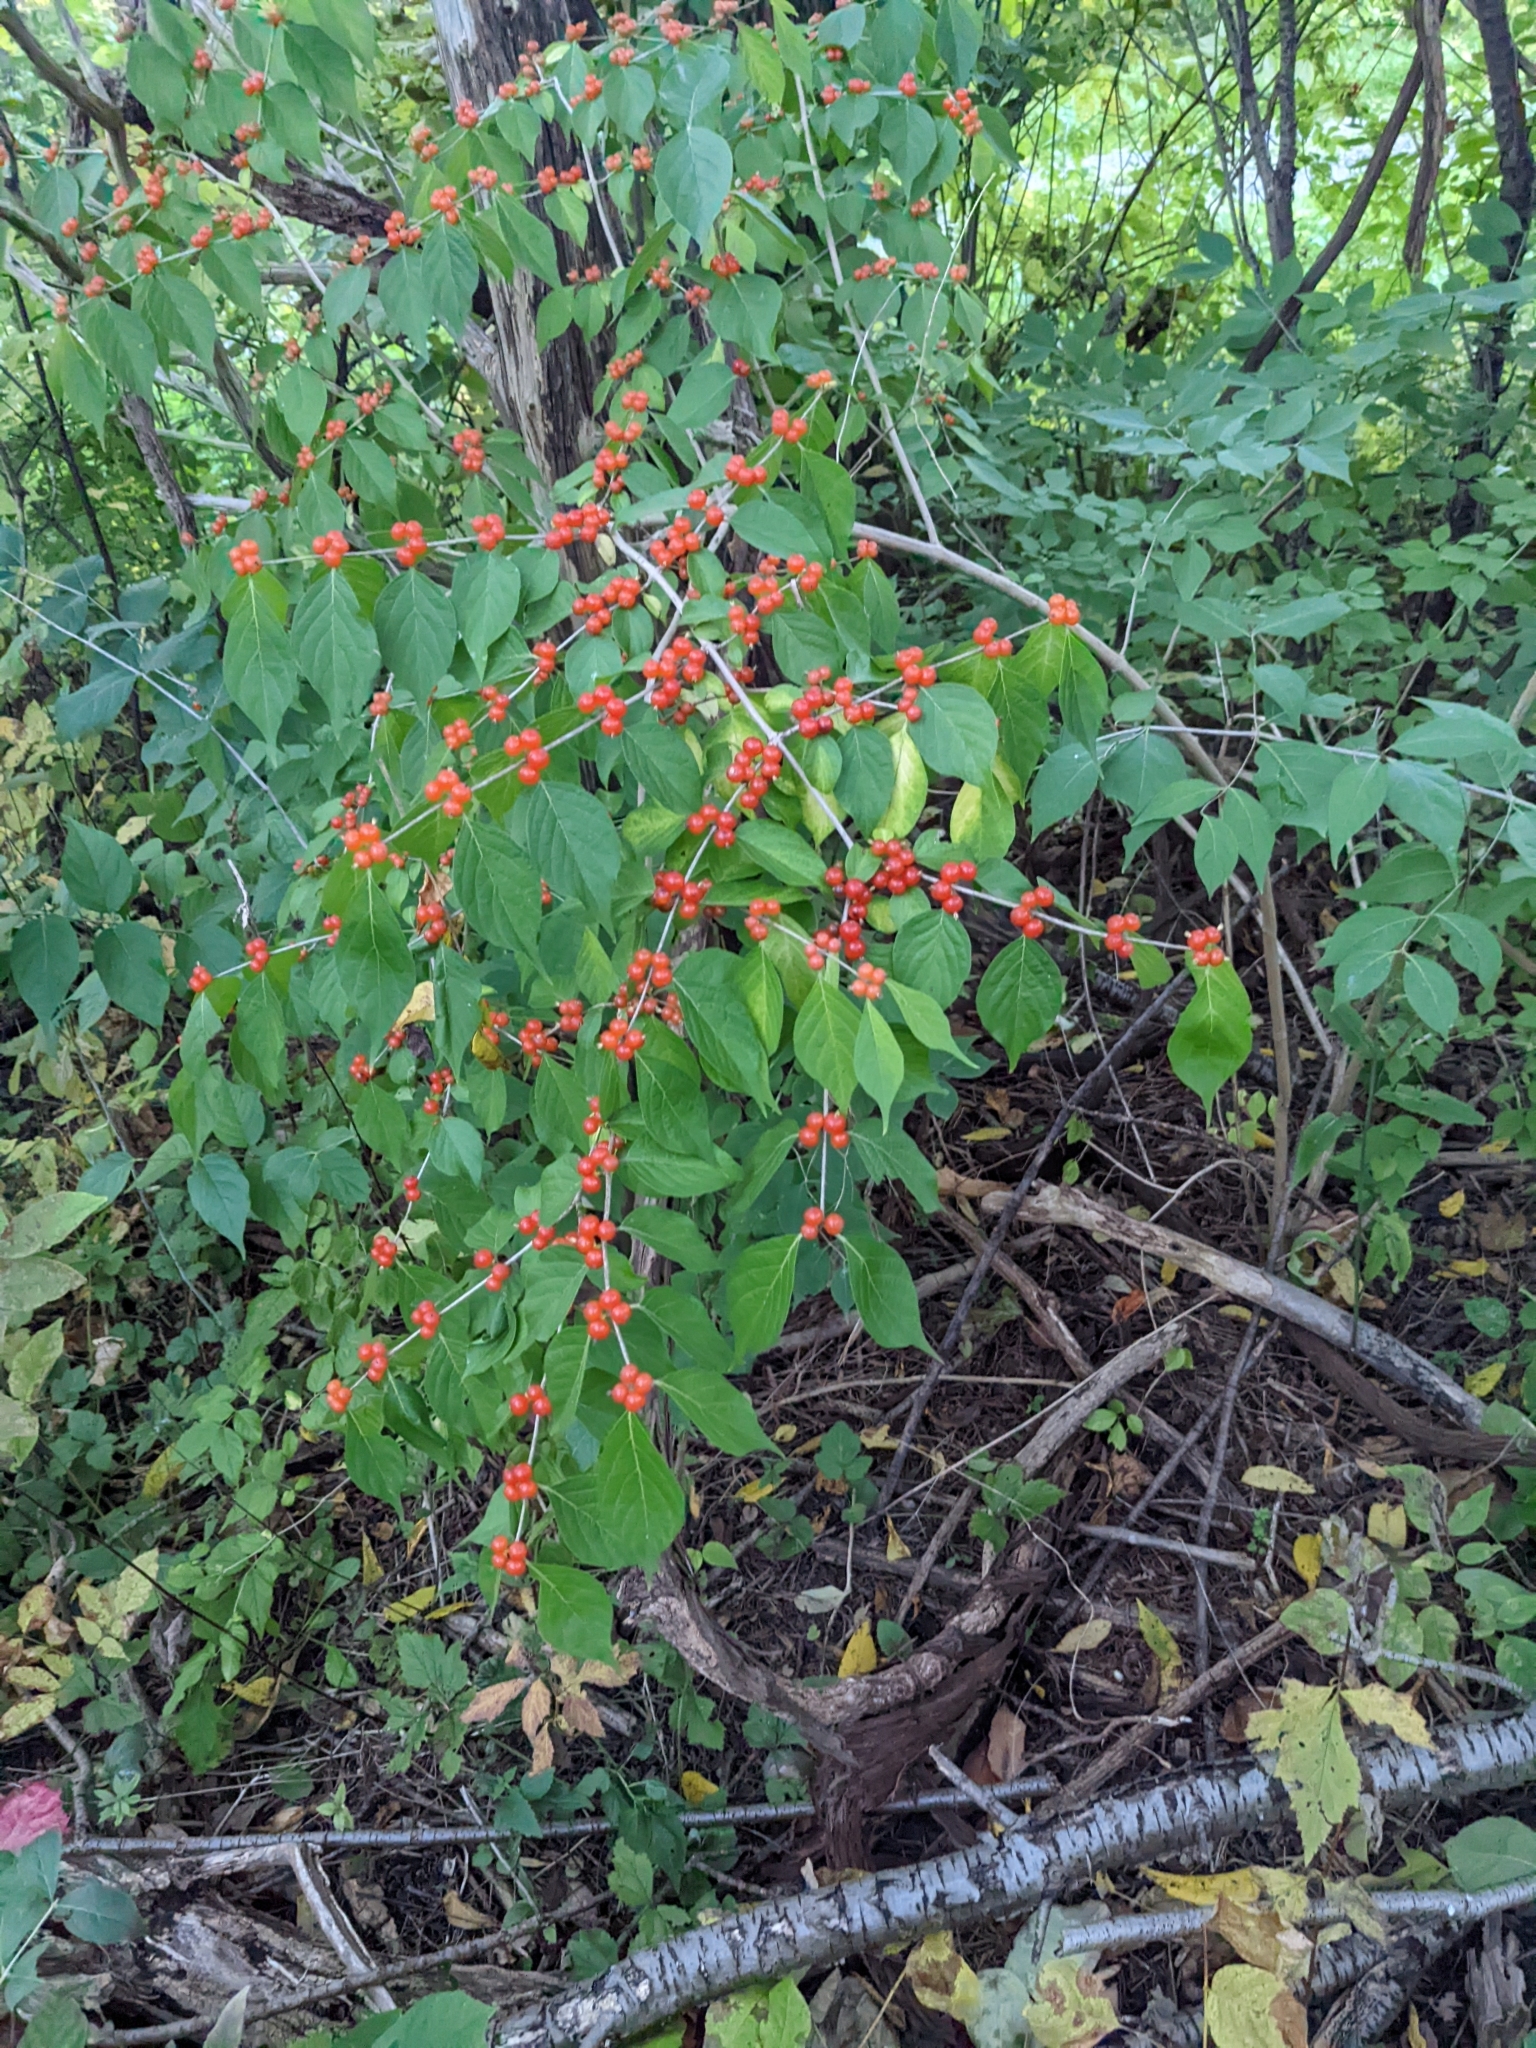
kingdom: Plantae
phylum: Tracheophyta
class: Magnoliopsida
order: Dipsacales
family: Caprifoliaceae
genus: Lonicera
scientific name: Lonicera maackii
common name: Amur honeysuckle
